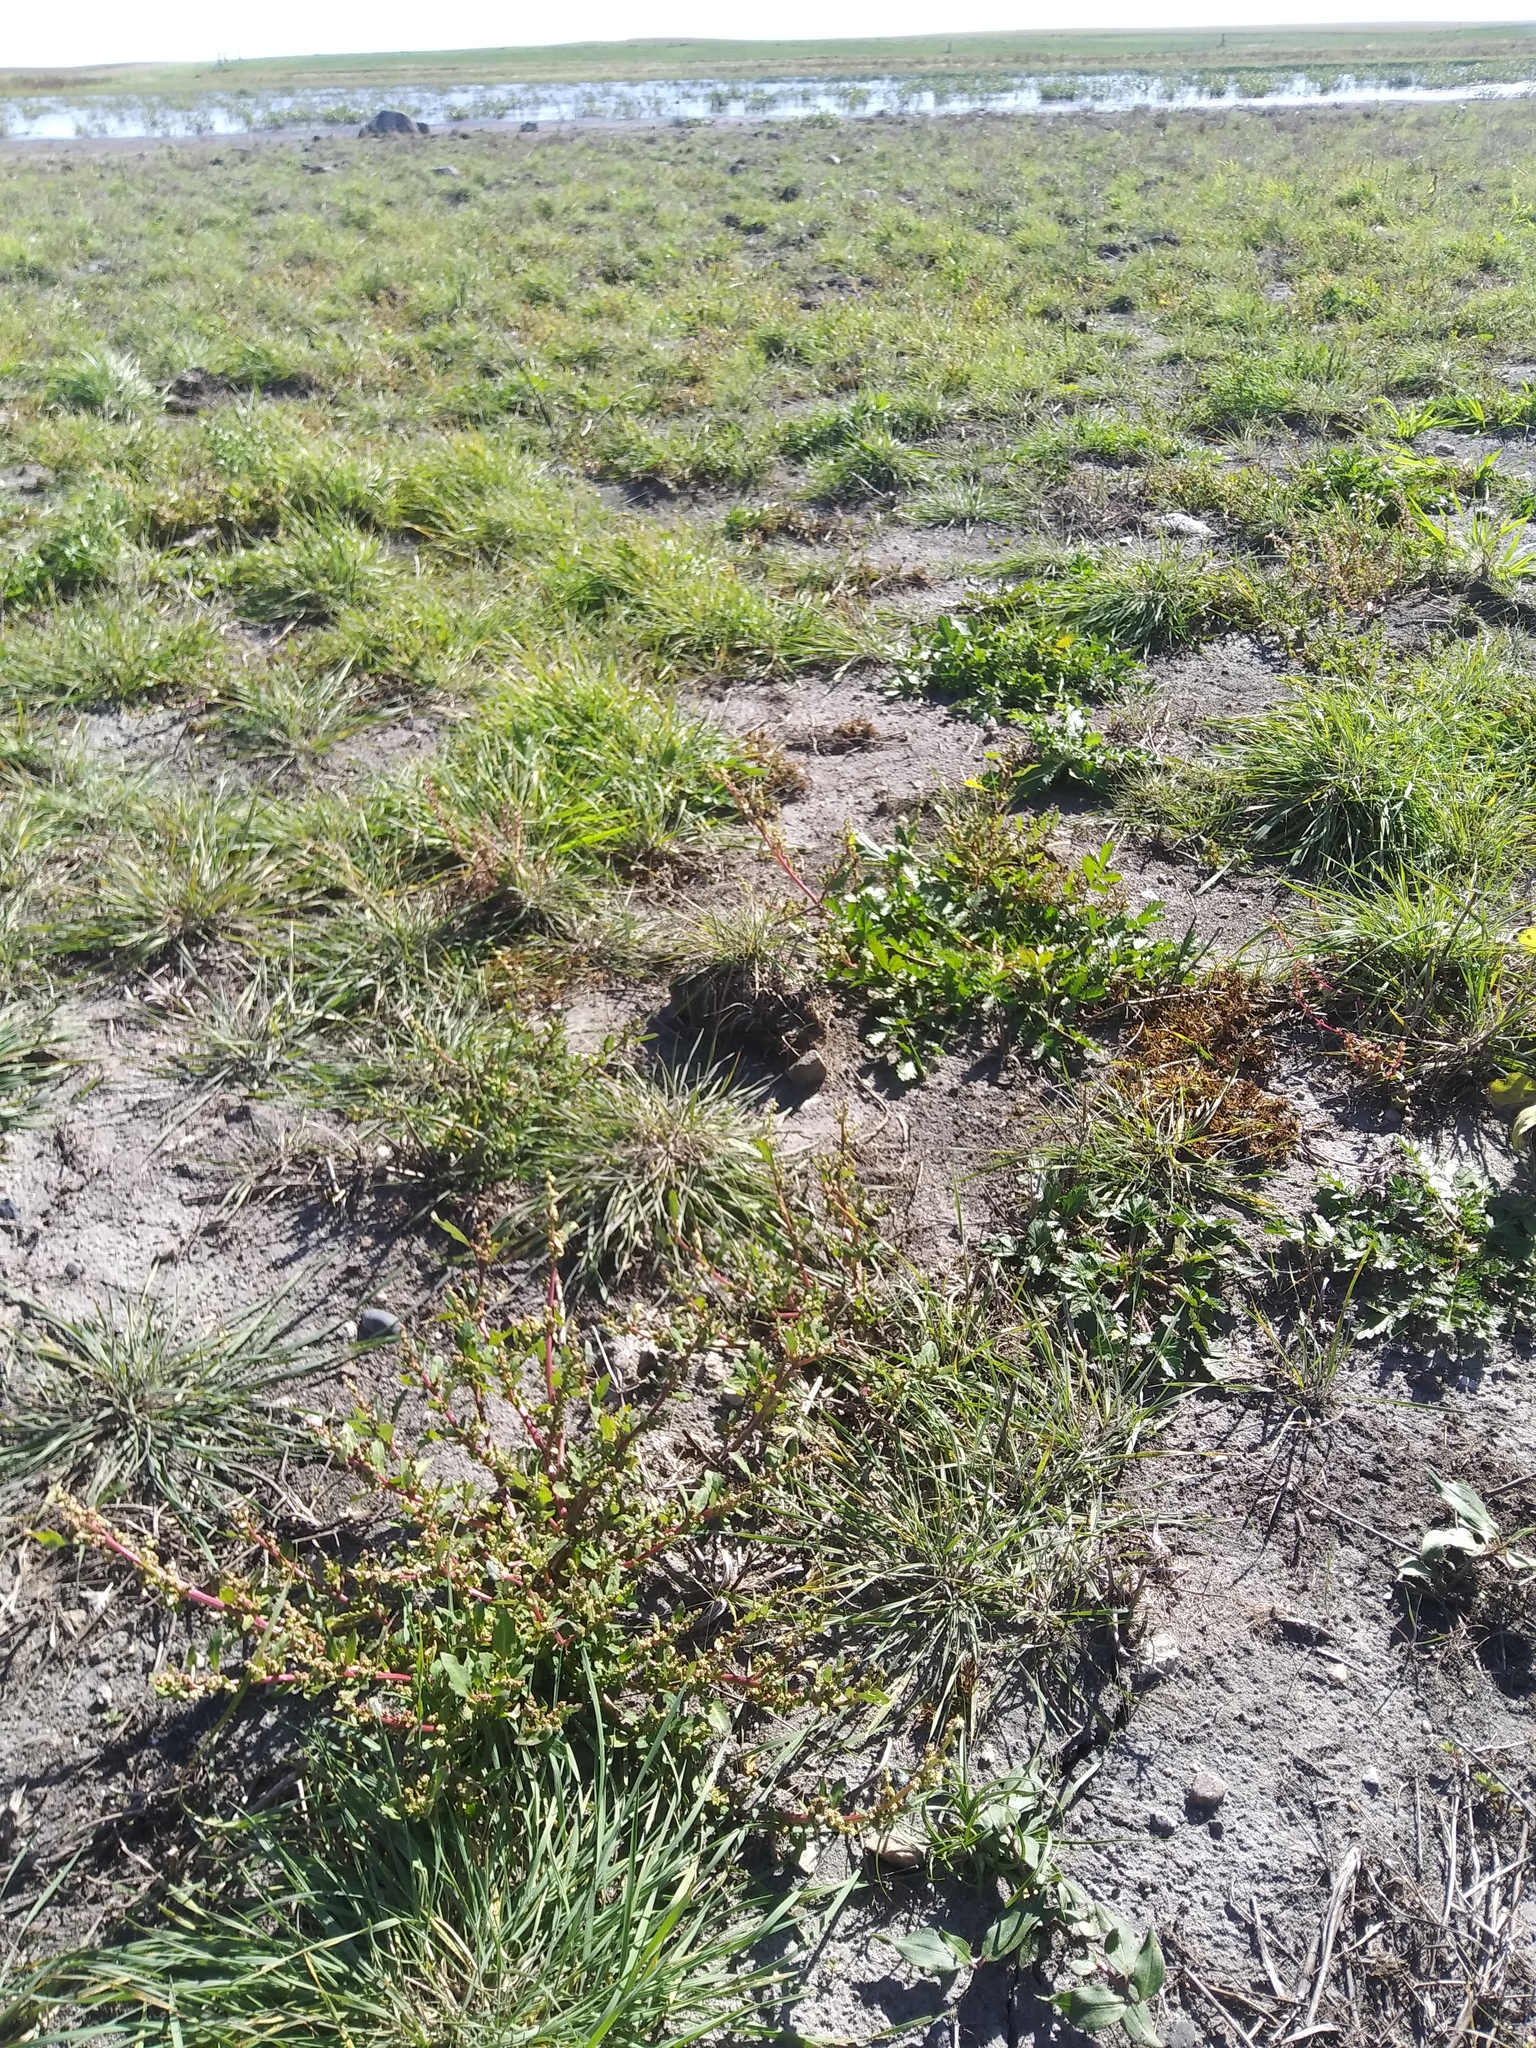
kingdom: Plantae
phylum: Tracheophyta
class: Magnoliopsida
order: Caryophyllales
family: Amaranthaceae
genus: Oxybasis
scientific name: Oxybasis glauca
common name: Glaucous goosefoot
